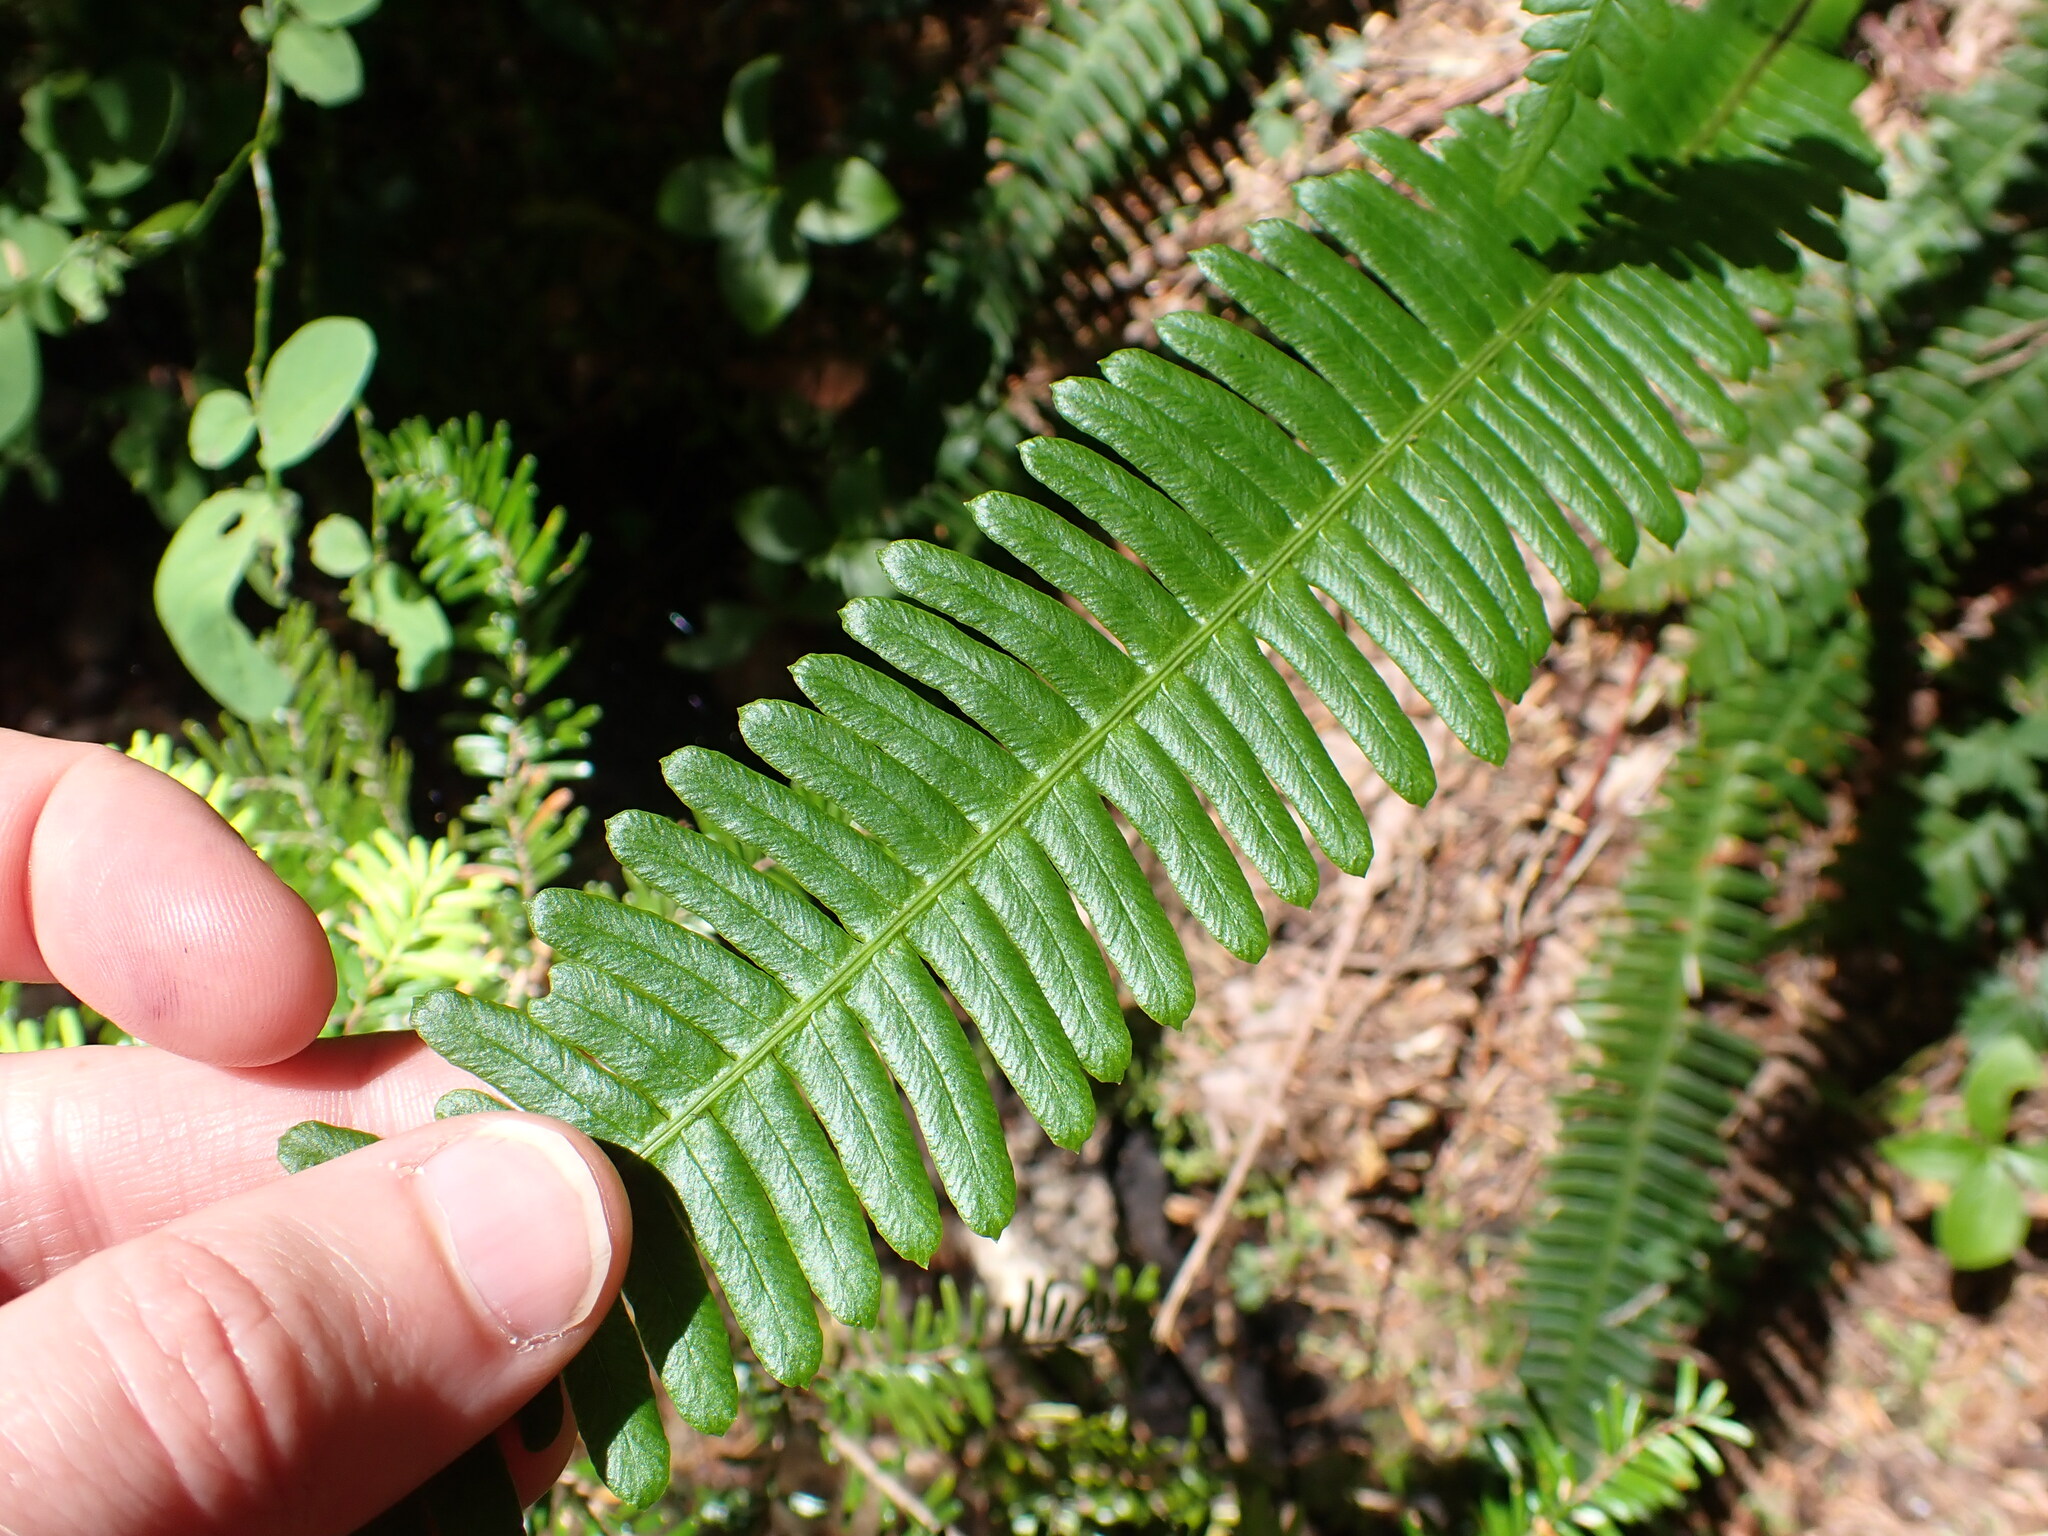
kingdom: Plantae
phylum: Tracheophyta
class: Polypodiopsida
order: Polypodiales
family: Blechnaceae
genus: Struthiopteris
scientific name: Struthiopteris spicant
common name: Deer fern
